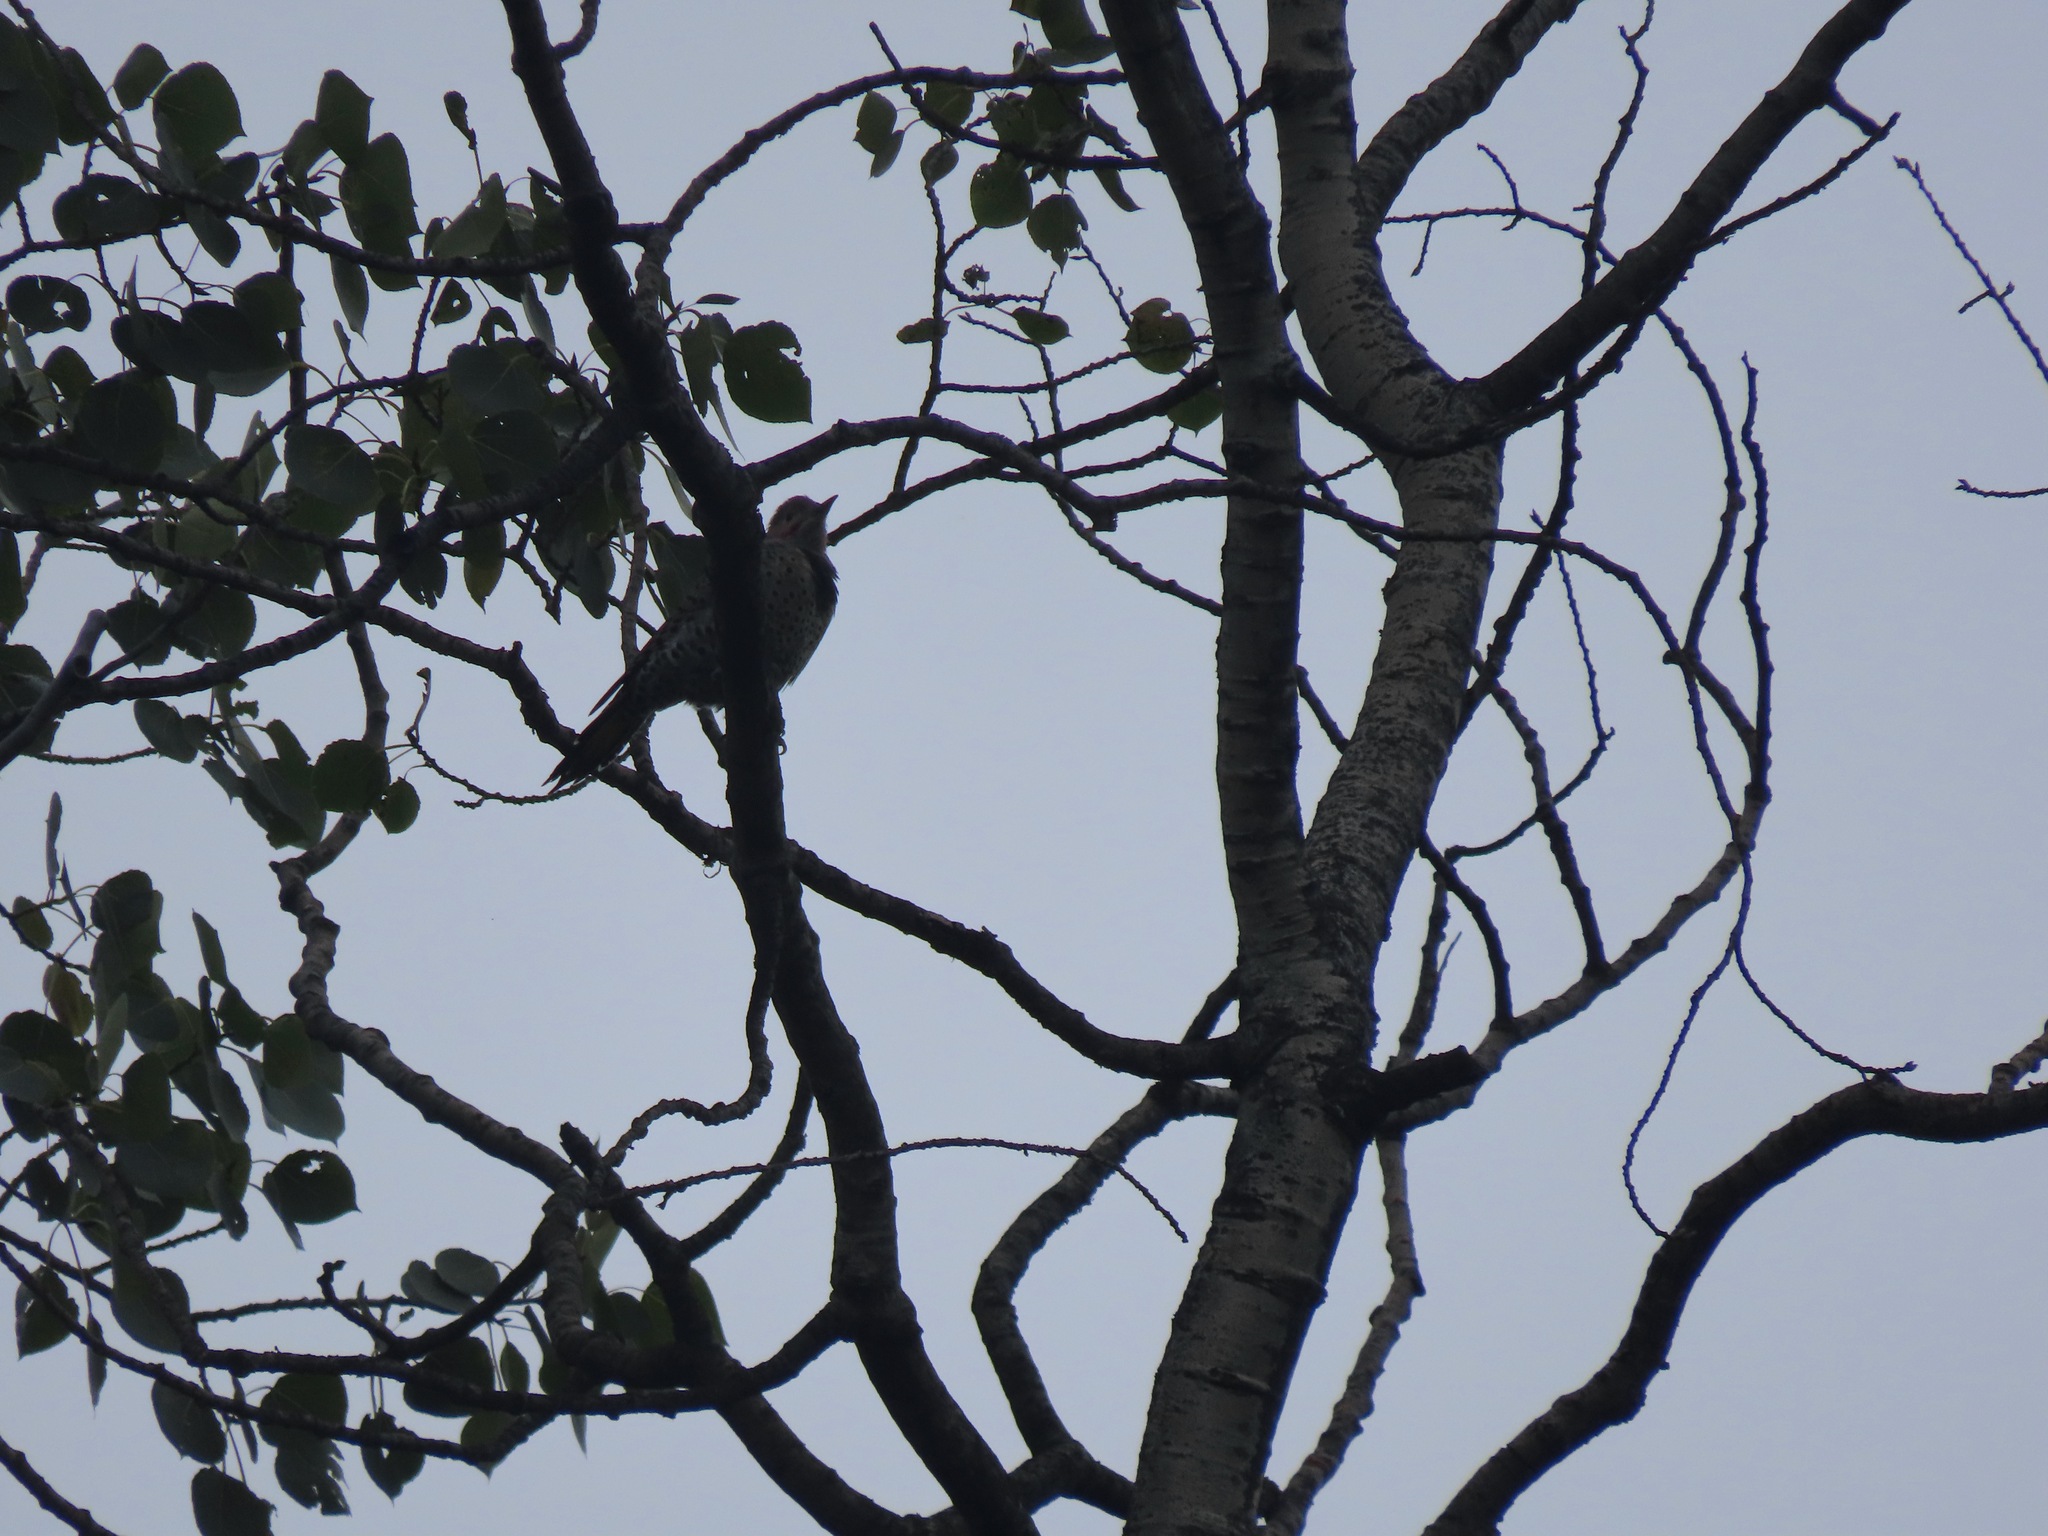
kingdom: Animalia
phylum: Chordata
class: Aves
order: Piciformes
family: Picidae
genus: Colaptes
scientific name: Colaptes auratus
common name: Northern flicker
